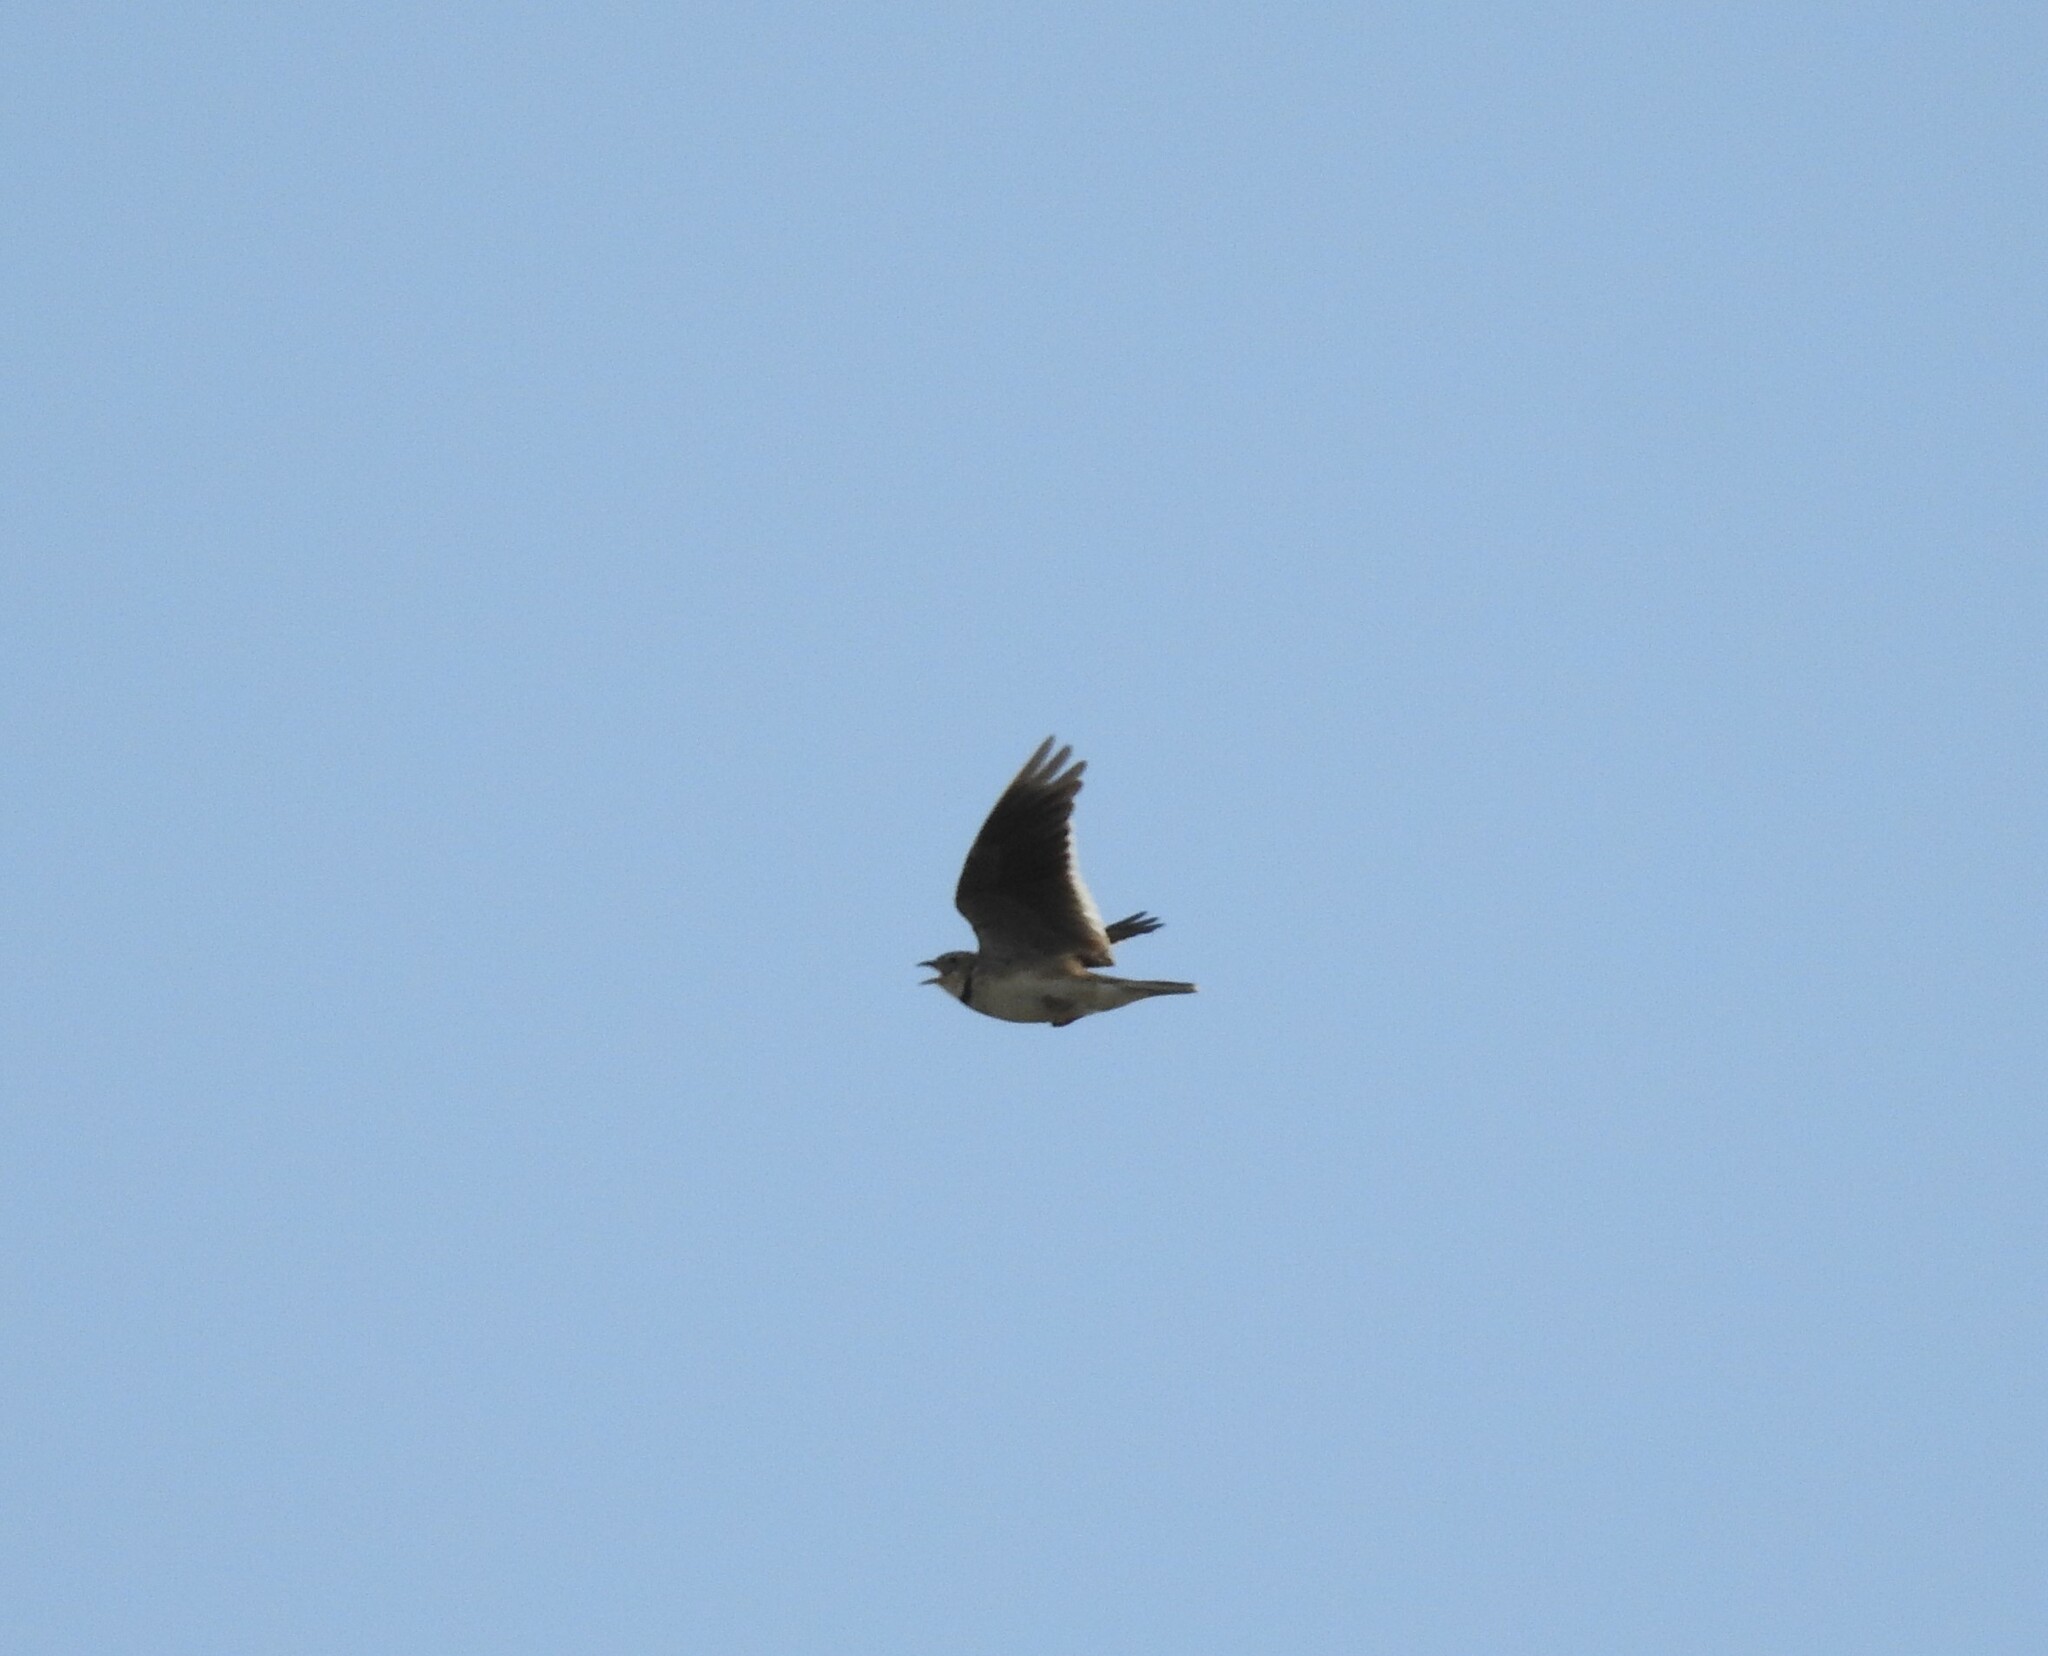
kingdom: Animalia
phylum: Chordata
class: Aves
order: Passeriformes
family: Alaudidae
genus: Melanocorypha
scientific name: Melanocorypha calandra
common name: Calandra lark
